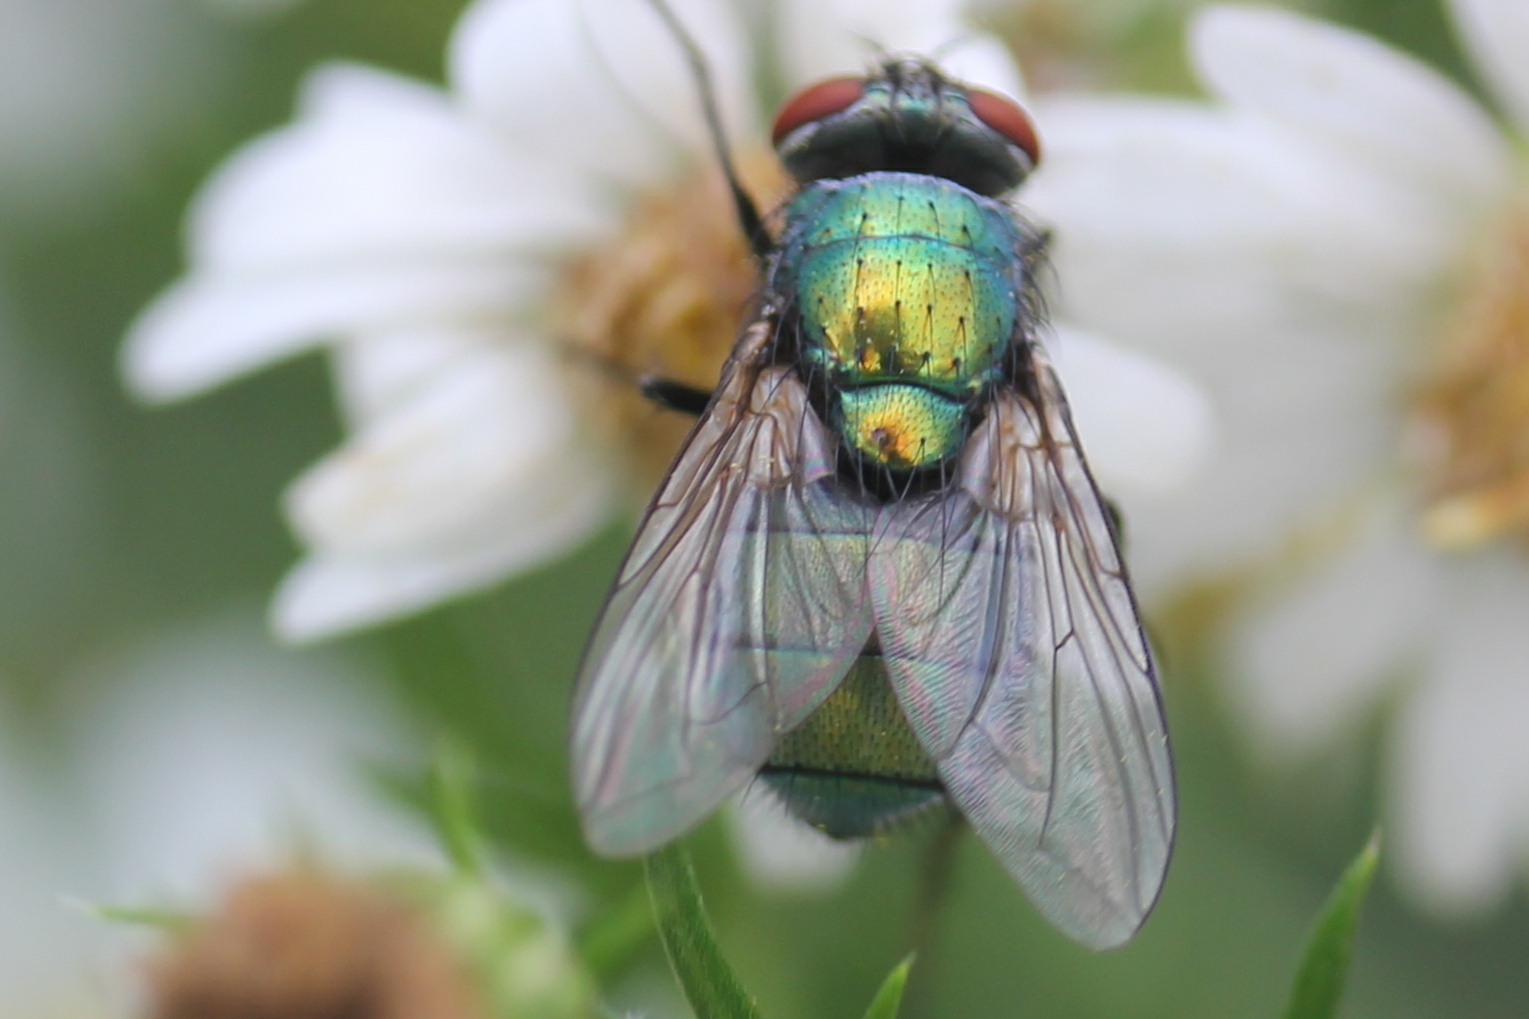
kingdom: Animalia
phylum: Arthropoda
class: Insecta
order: Diptera
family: Calliphoridae
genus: Lucilia
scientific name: Lucilia sericata
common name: Blow fly
